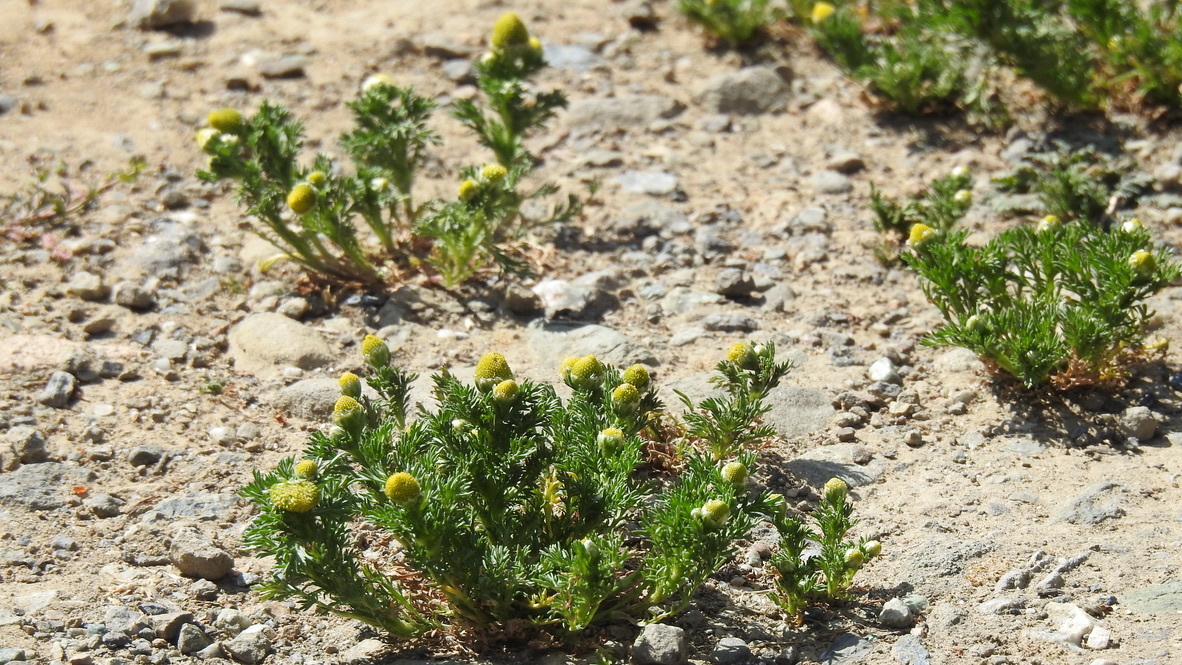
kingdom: Plantae
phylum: Tracheophyta
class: Magnoliopsida
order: Asterales
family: Asteraceae
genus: Matricaria
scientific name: Matricaria discoidea
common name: Disc mayweed
